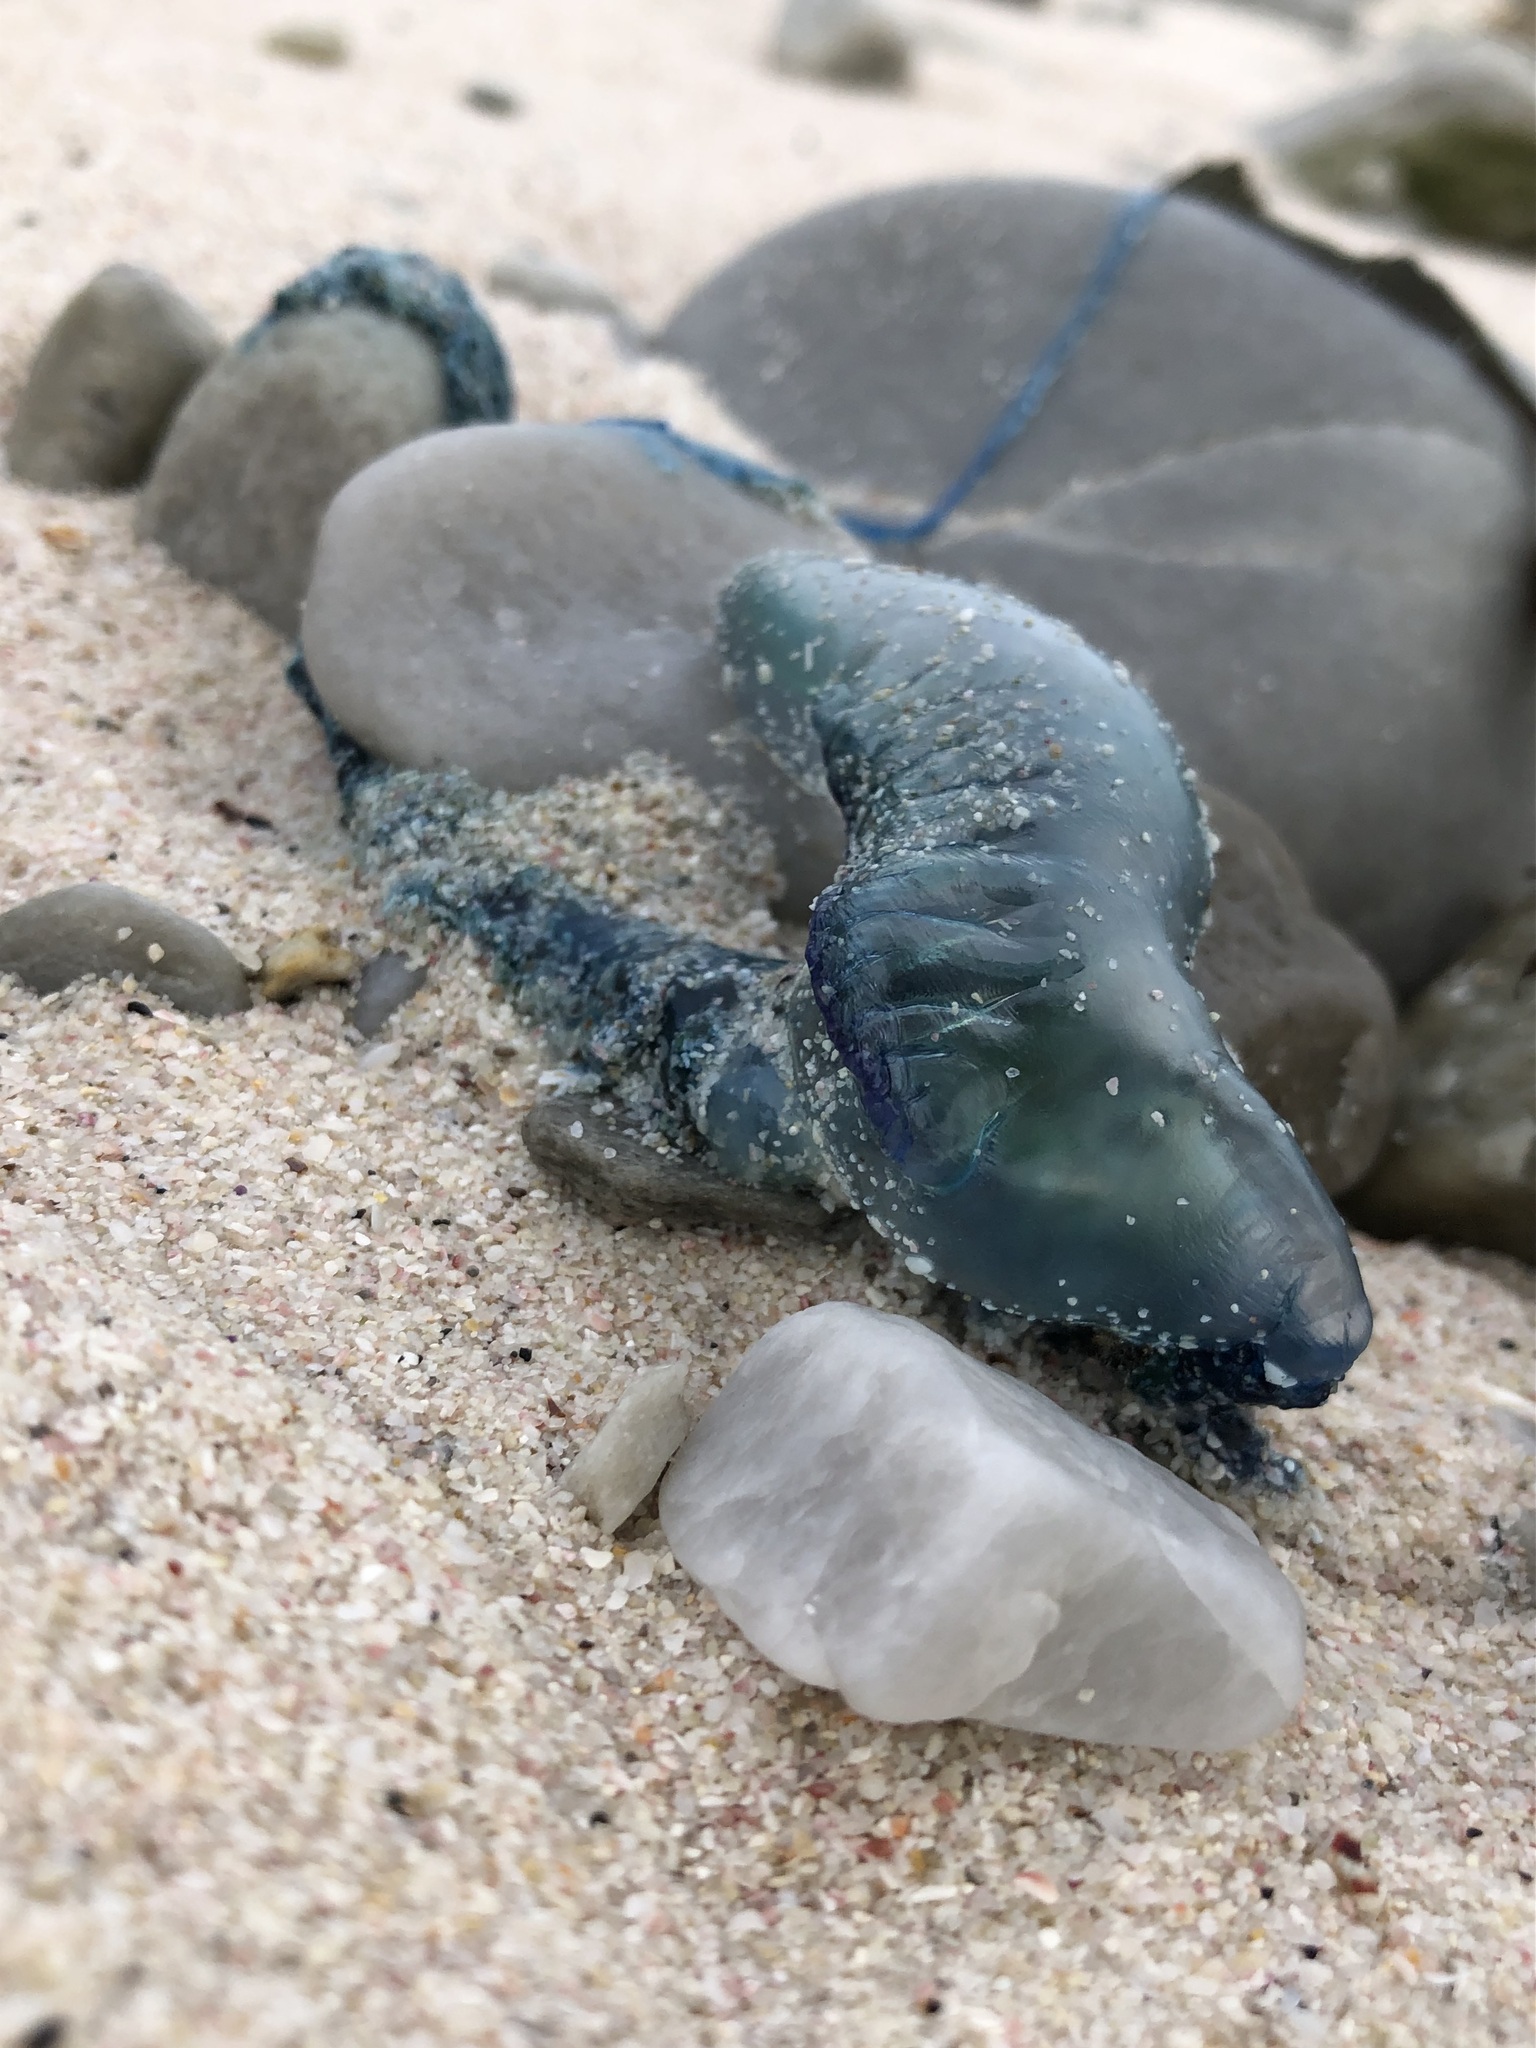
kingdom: Animalia
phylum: Cnidaria
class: Hydrozoa
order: Siphonophorae
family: Physaliidae
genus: Physalia
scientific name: Physalia physalis
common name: Portuguese man-of-war
